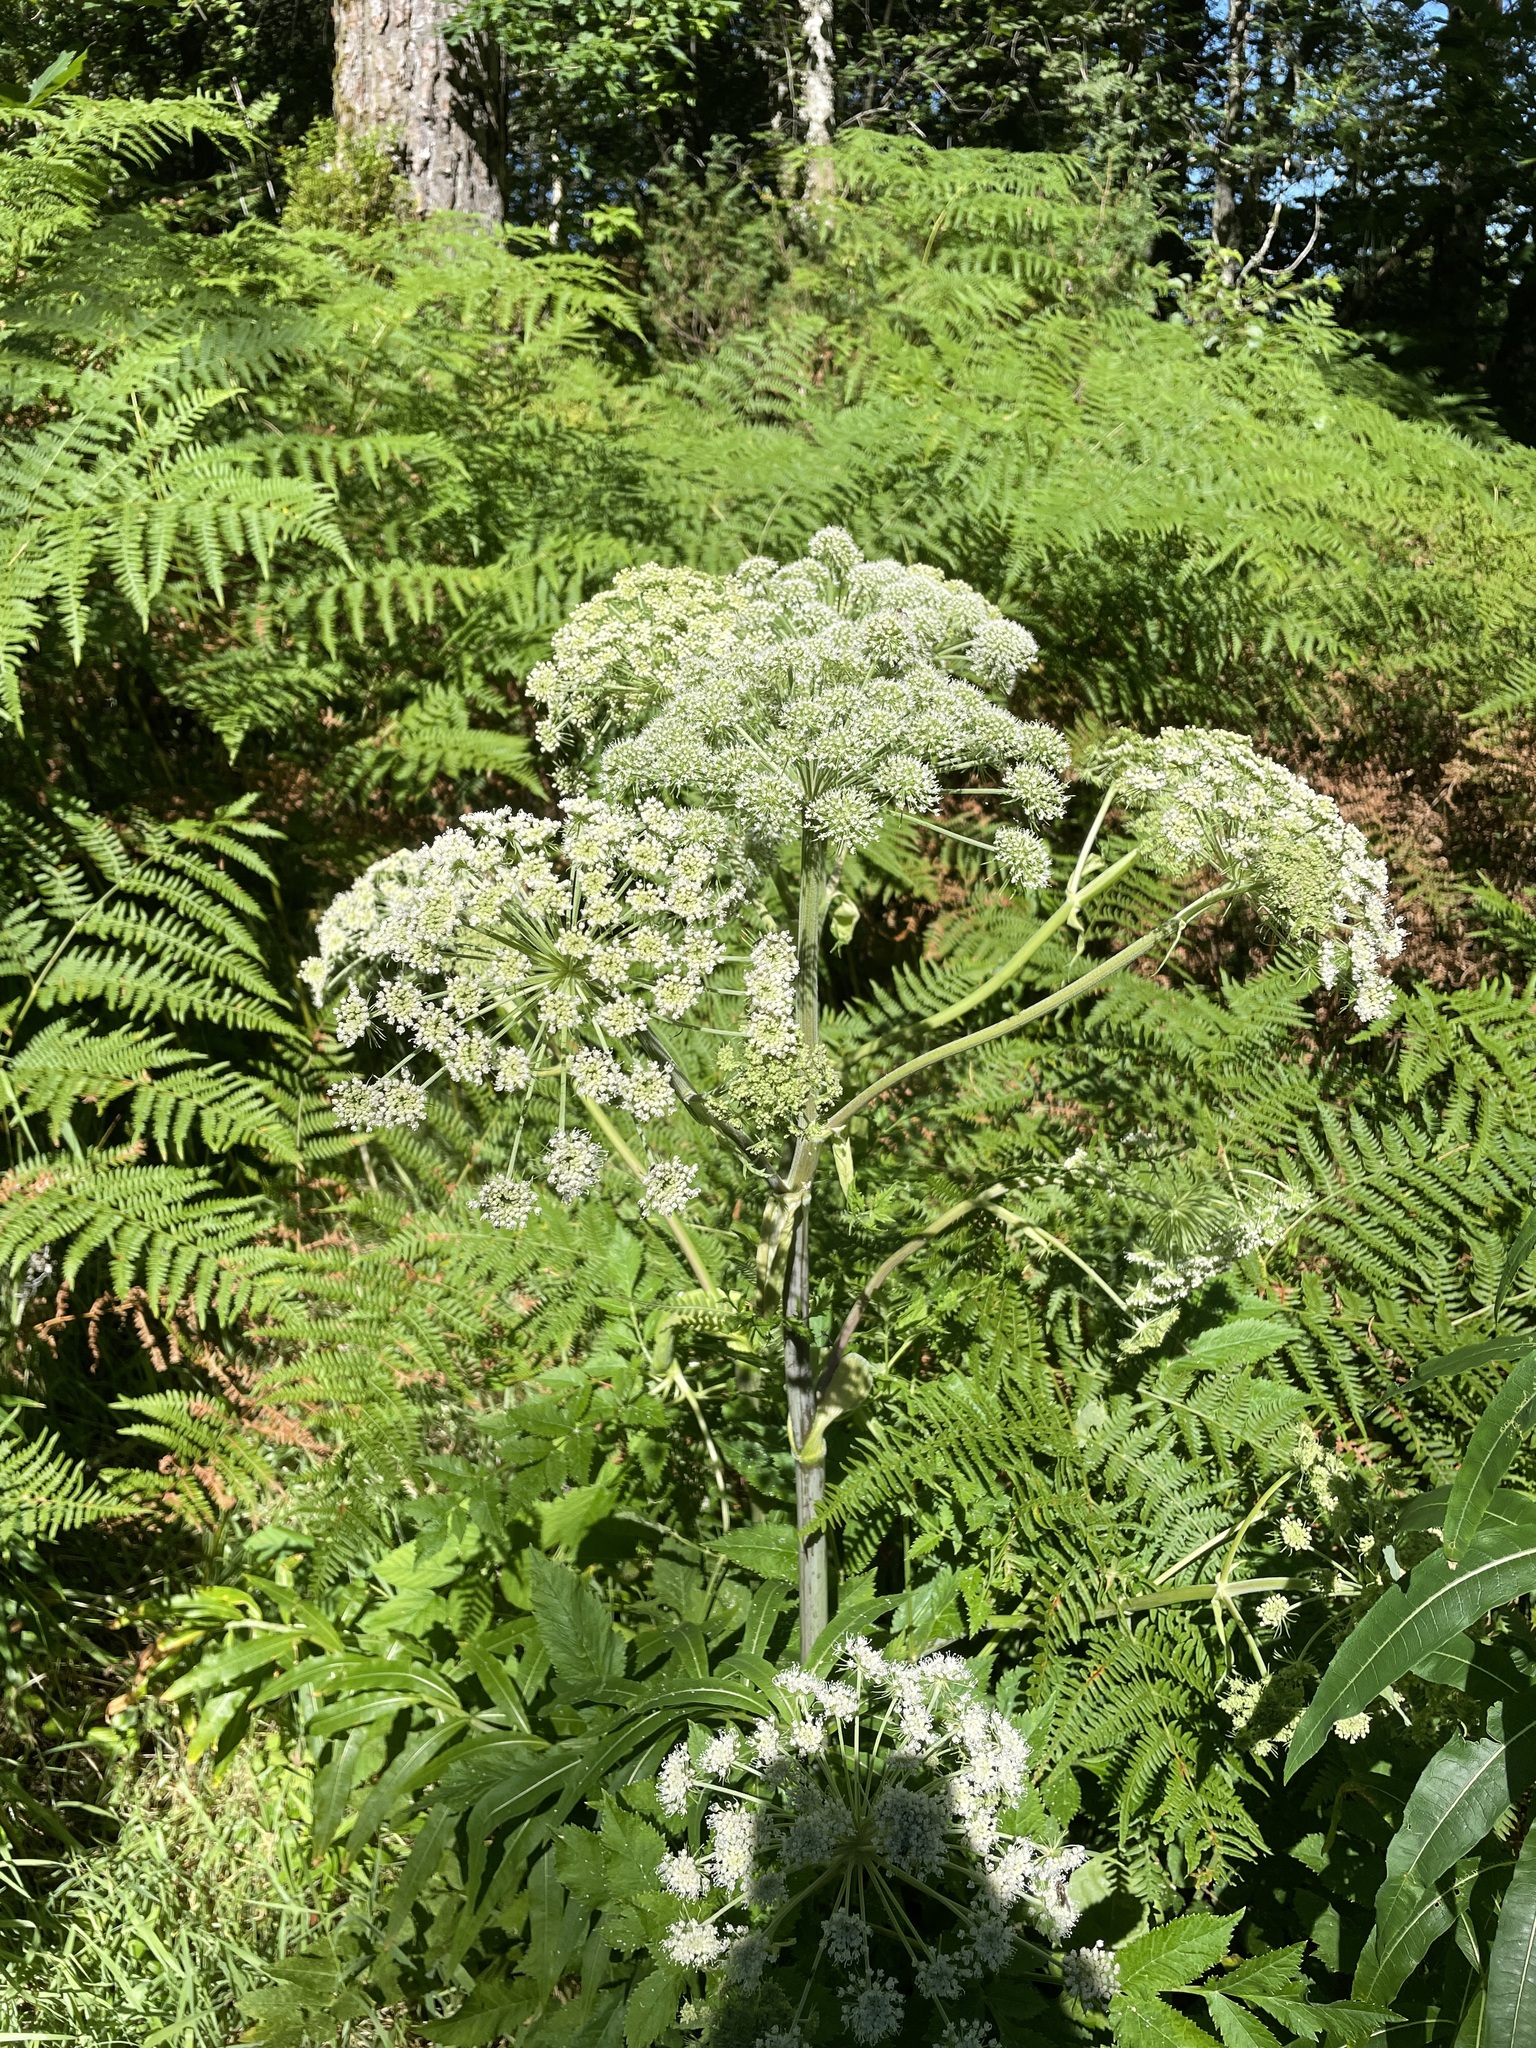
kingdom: Plantae
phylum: Tracheophyta
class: Magnoliopsida
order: Apiales
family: Apiaceae
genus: Angelica
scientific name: Angelica sylvestris
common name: Wild angelica
